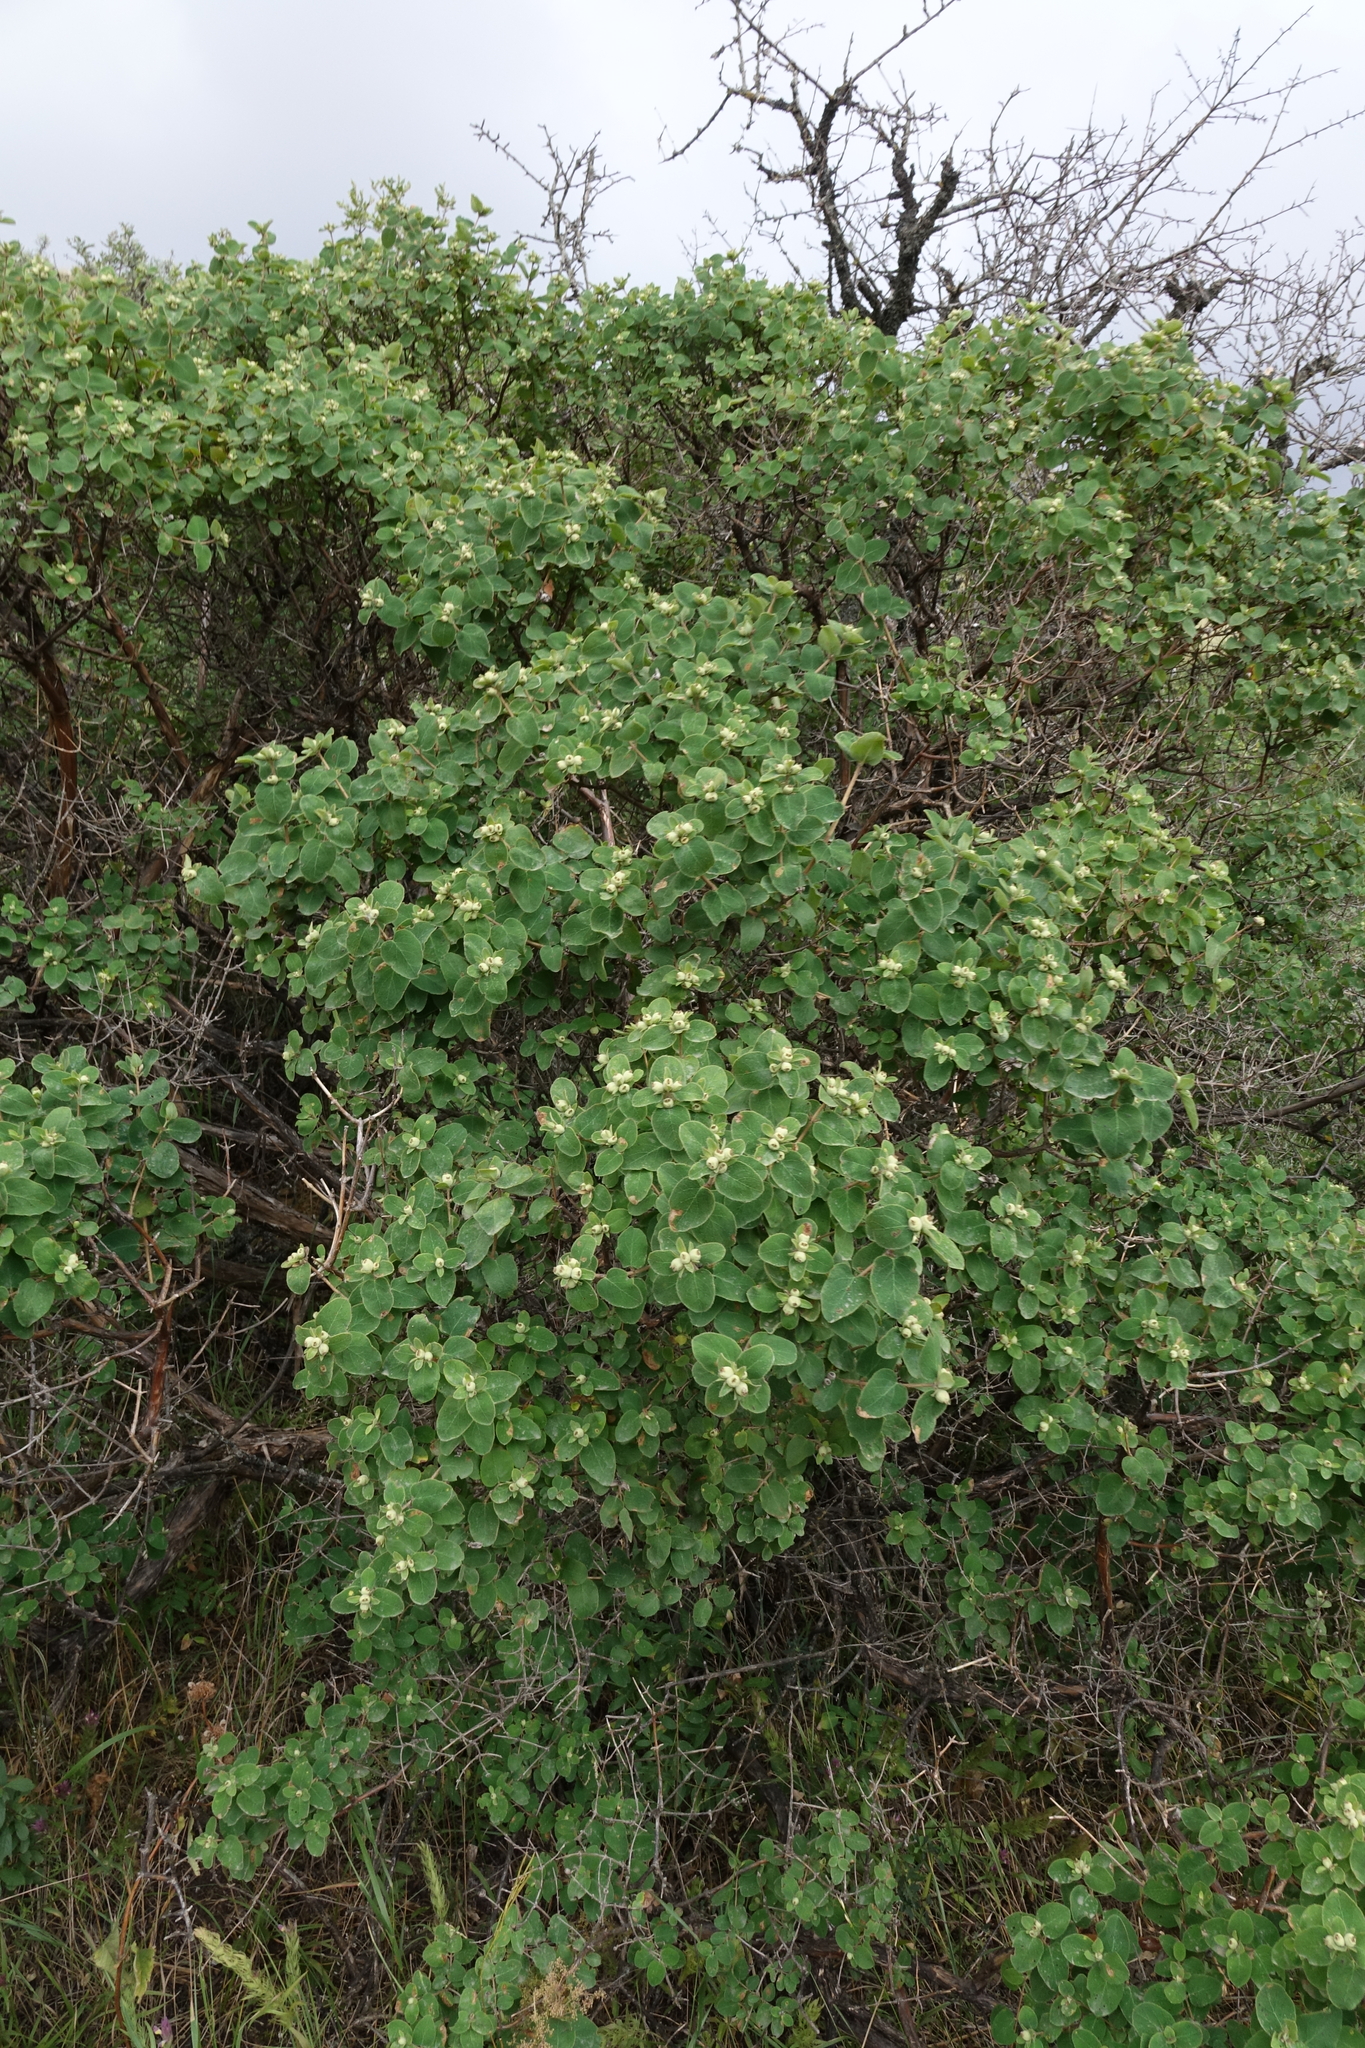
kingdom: Plantae
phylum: Tracheophyta
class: Magnoliopsida
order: Dipsacales
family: Caprifoliaceae
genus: Lonicera
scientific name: Lonicera iberica
